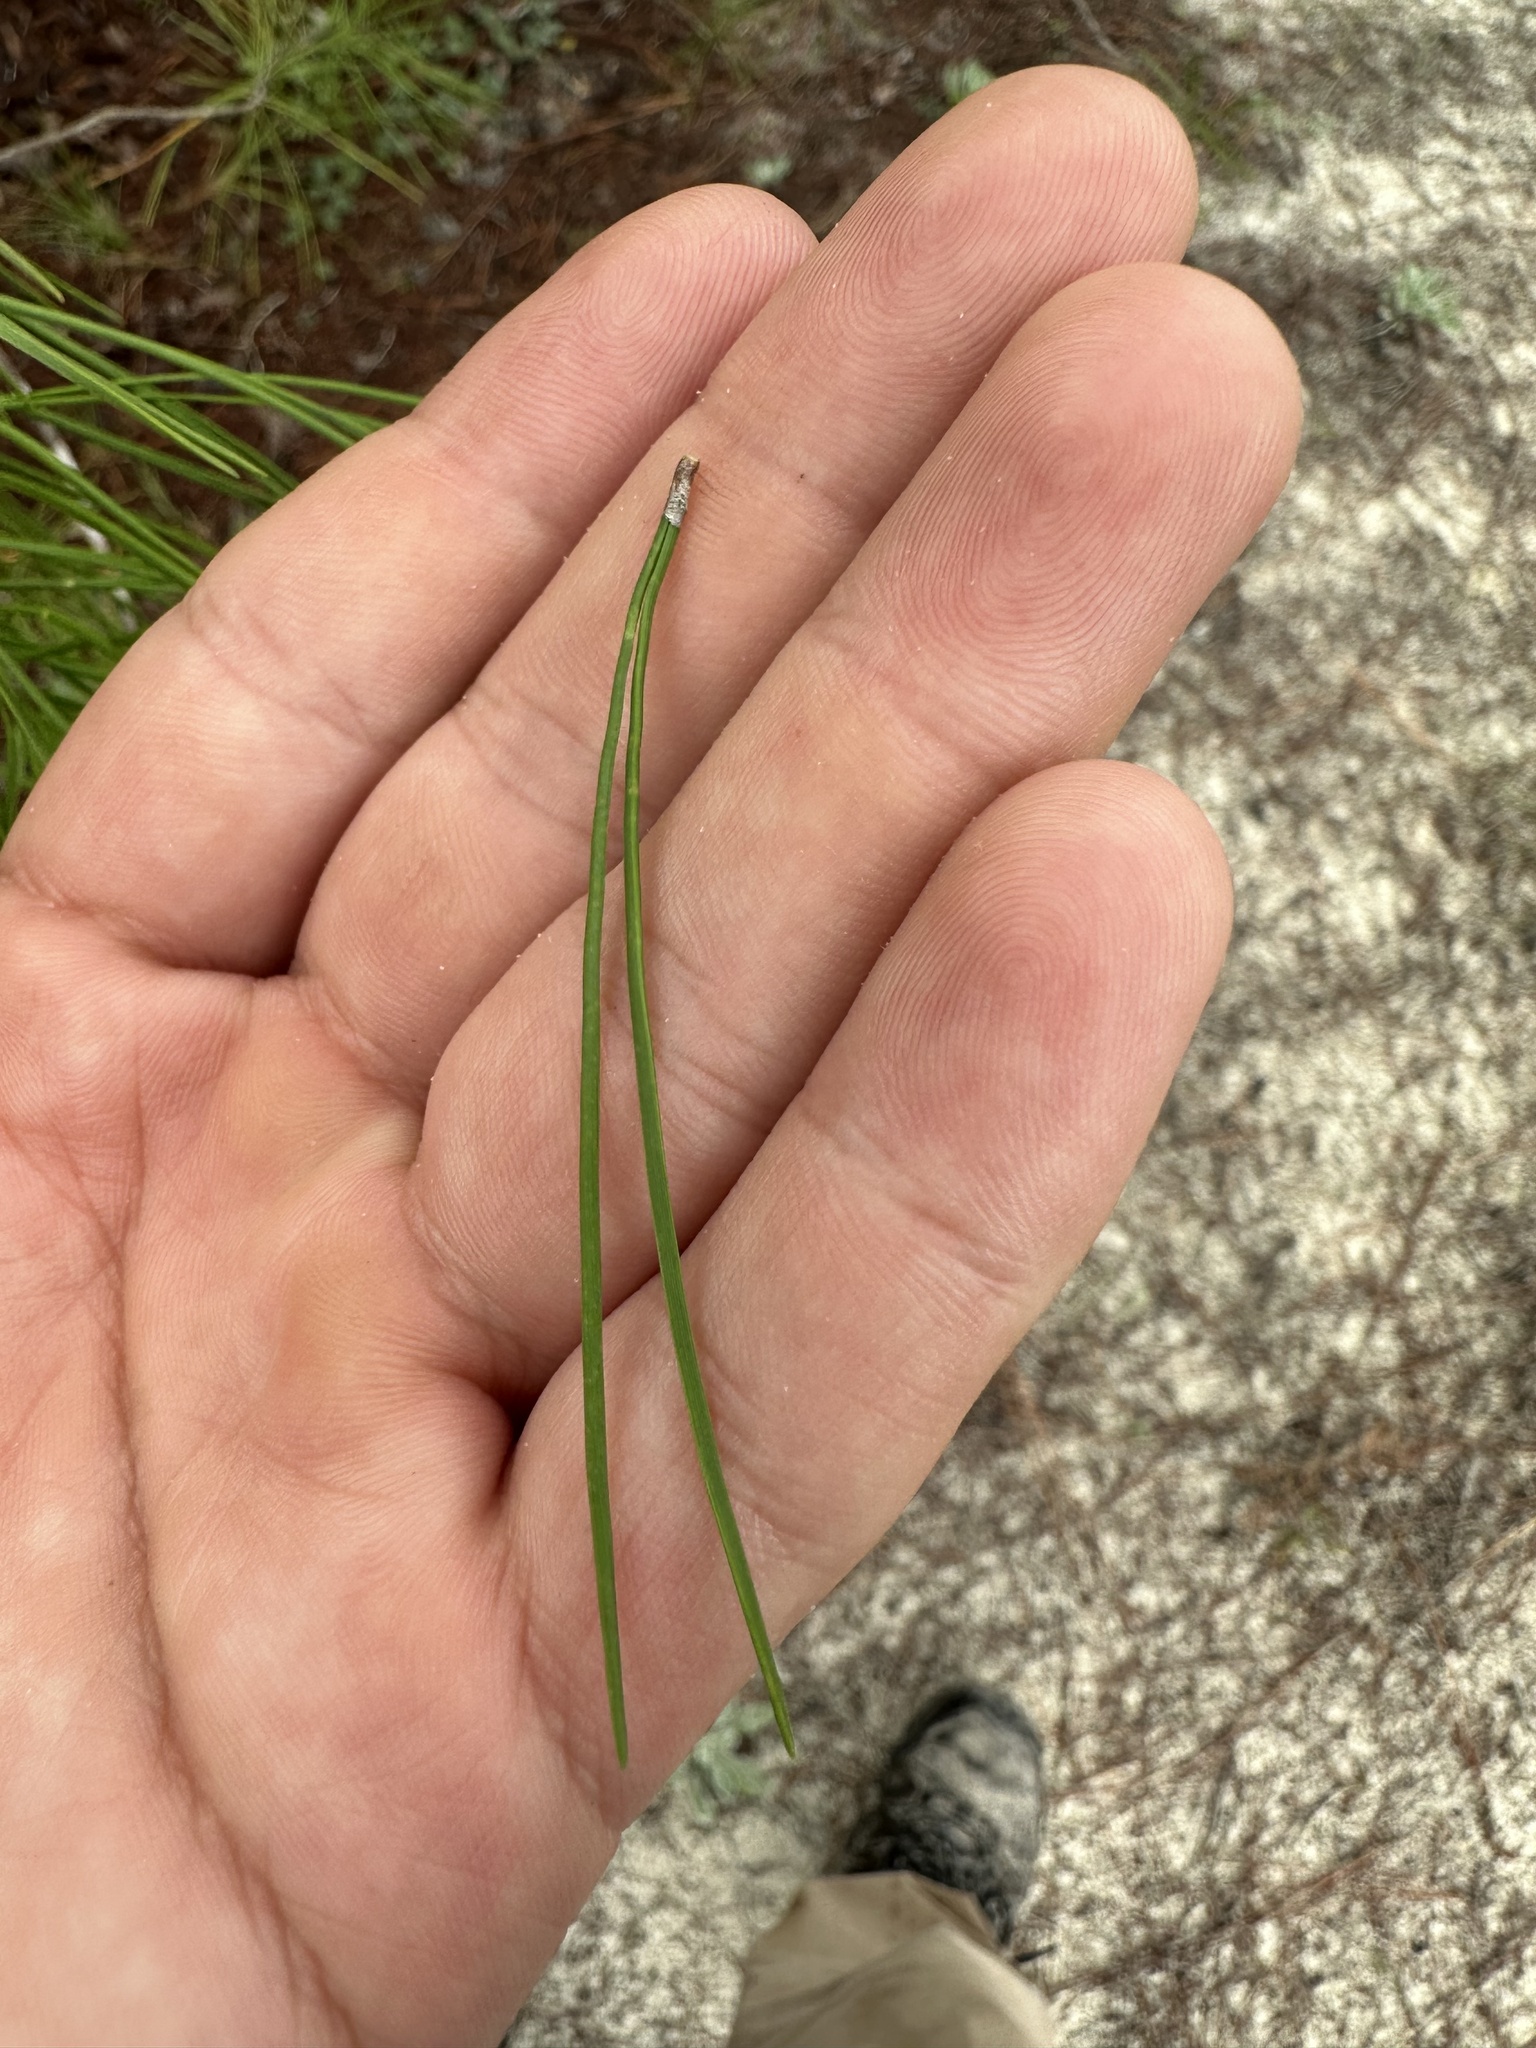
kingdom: Plantae
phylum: Tracheophyta
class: Pinopsida
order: Pinales
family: Pinaceae
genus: Pinus
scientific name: Pinus clausa
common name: Sand pine
